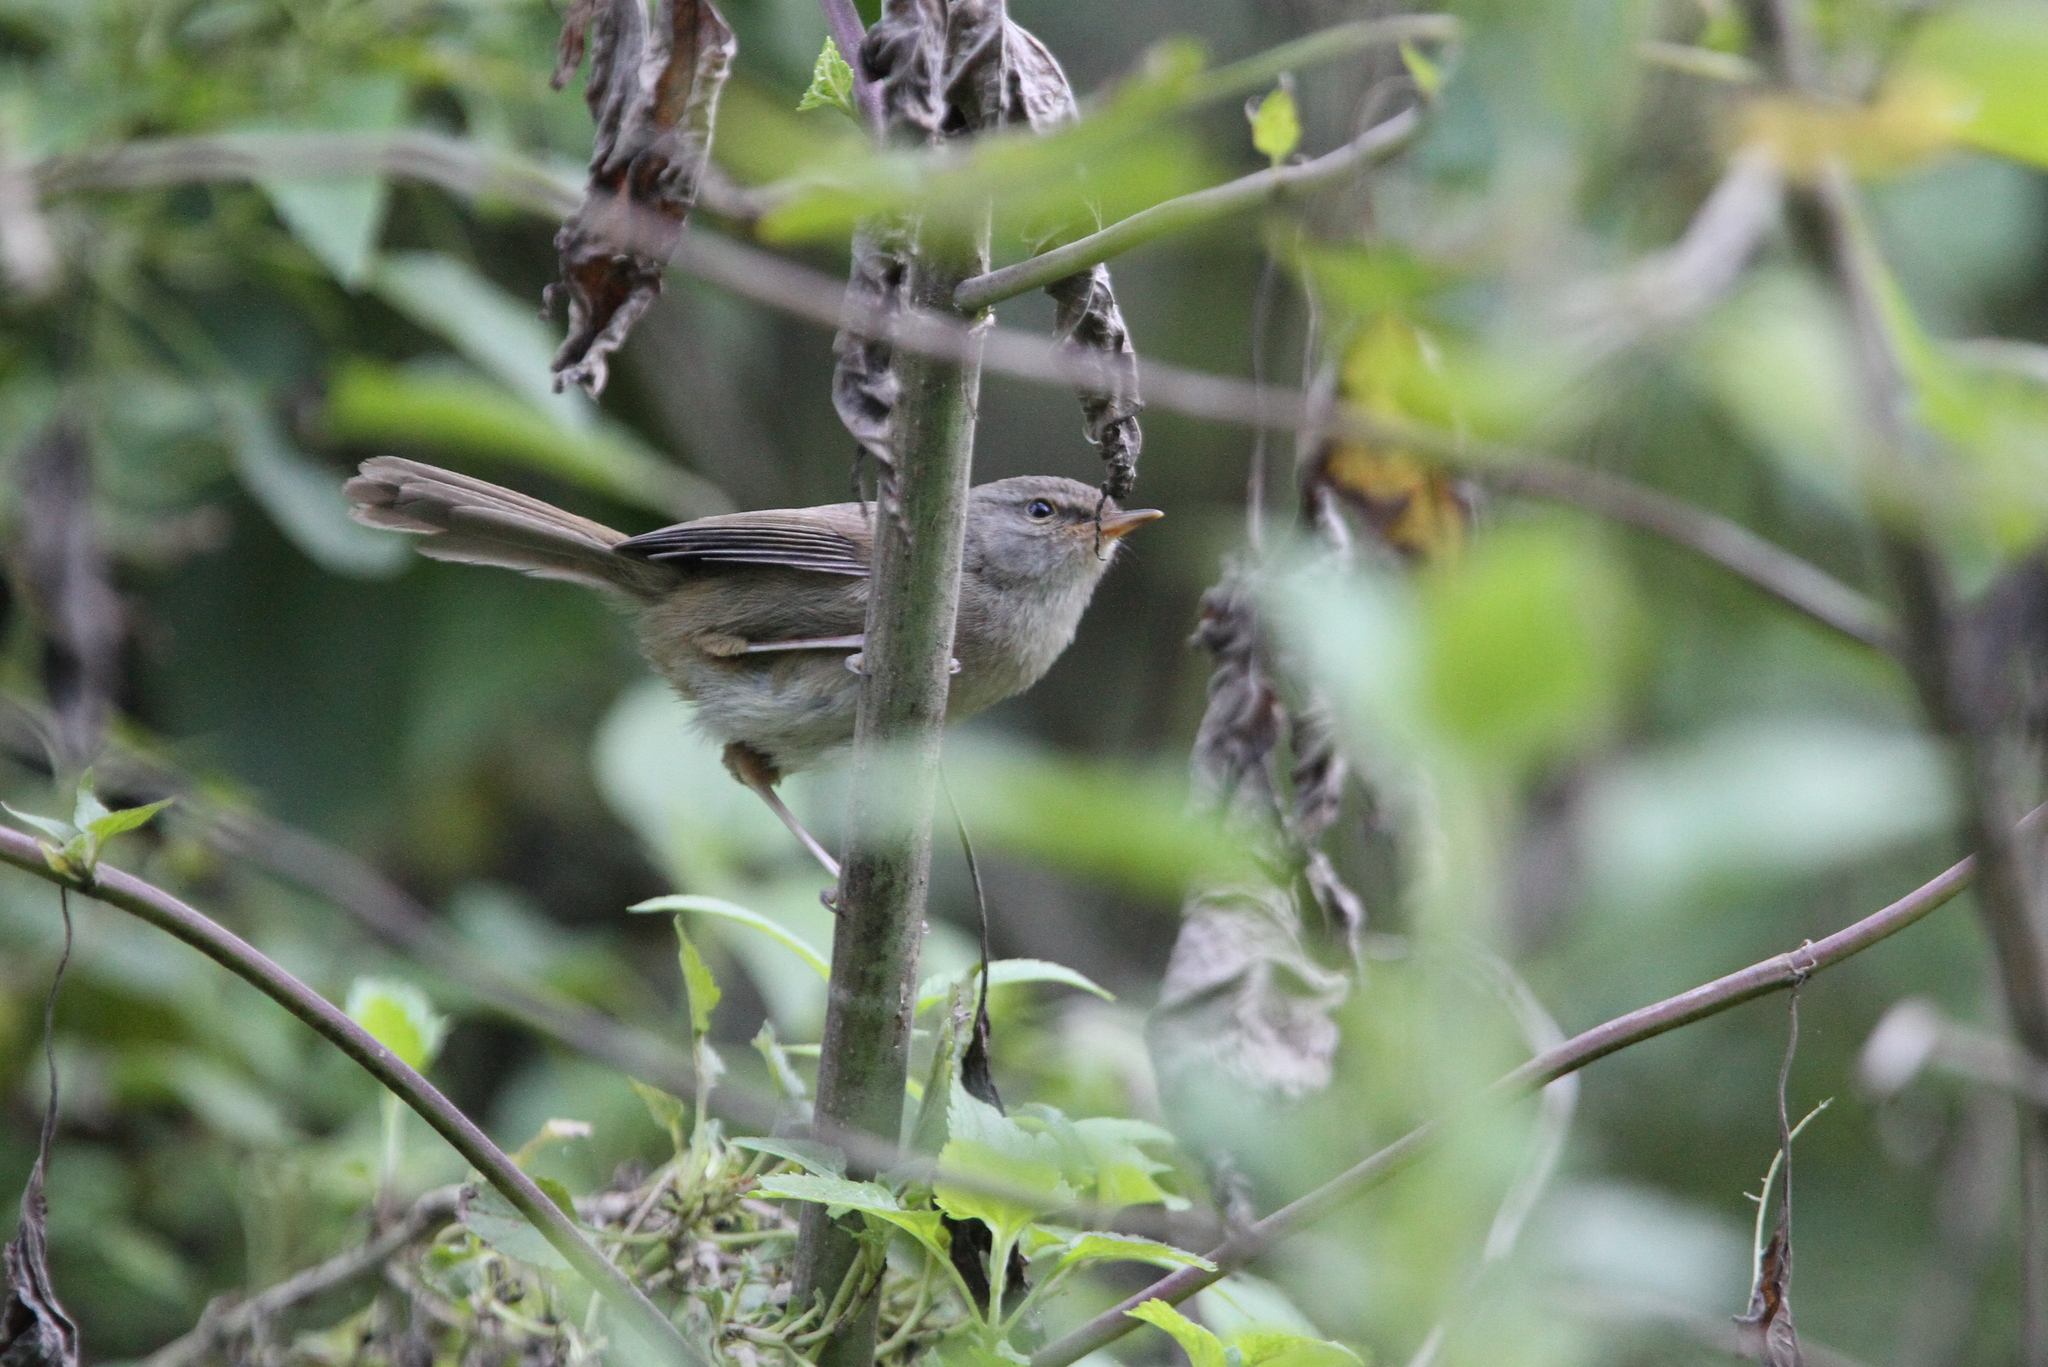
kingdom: Animalia
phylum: Chordata
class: Aves
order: Passeriformes
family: Cettiidae
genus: Horornis
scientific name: Horornis flavolivaceus
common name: Aberrant bush warbler
